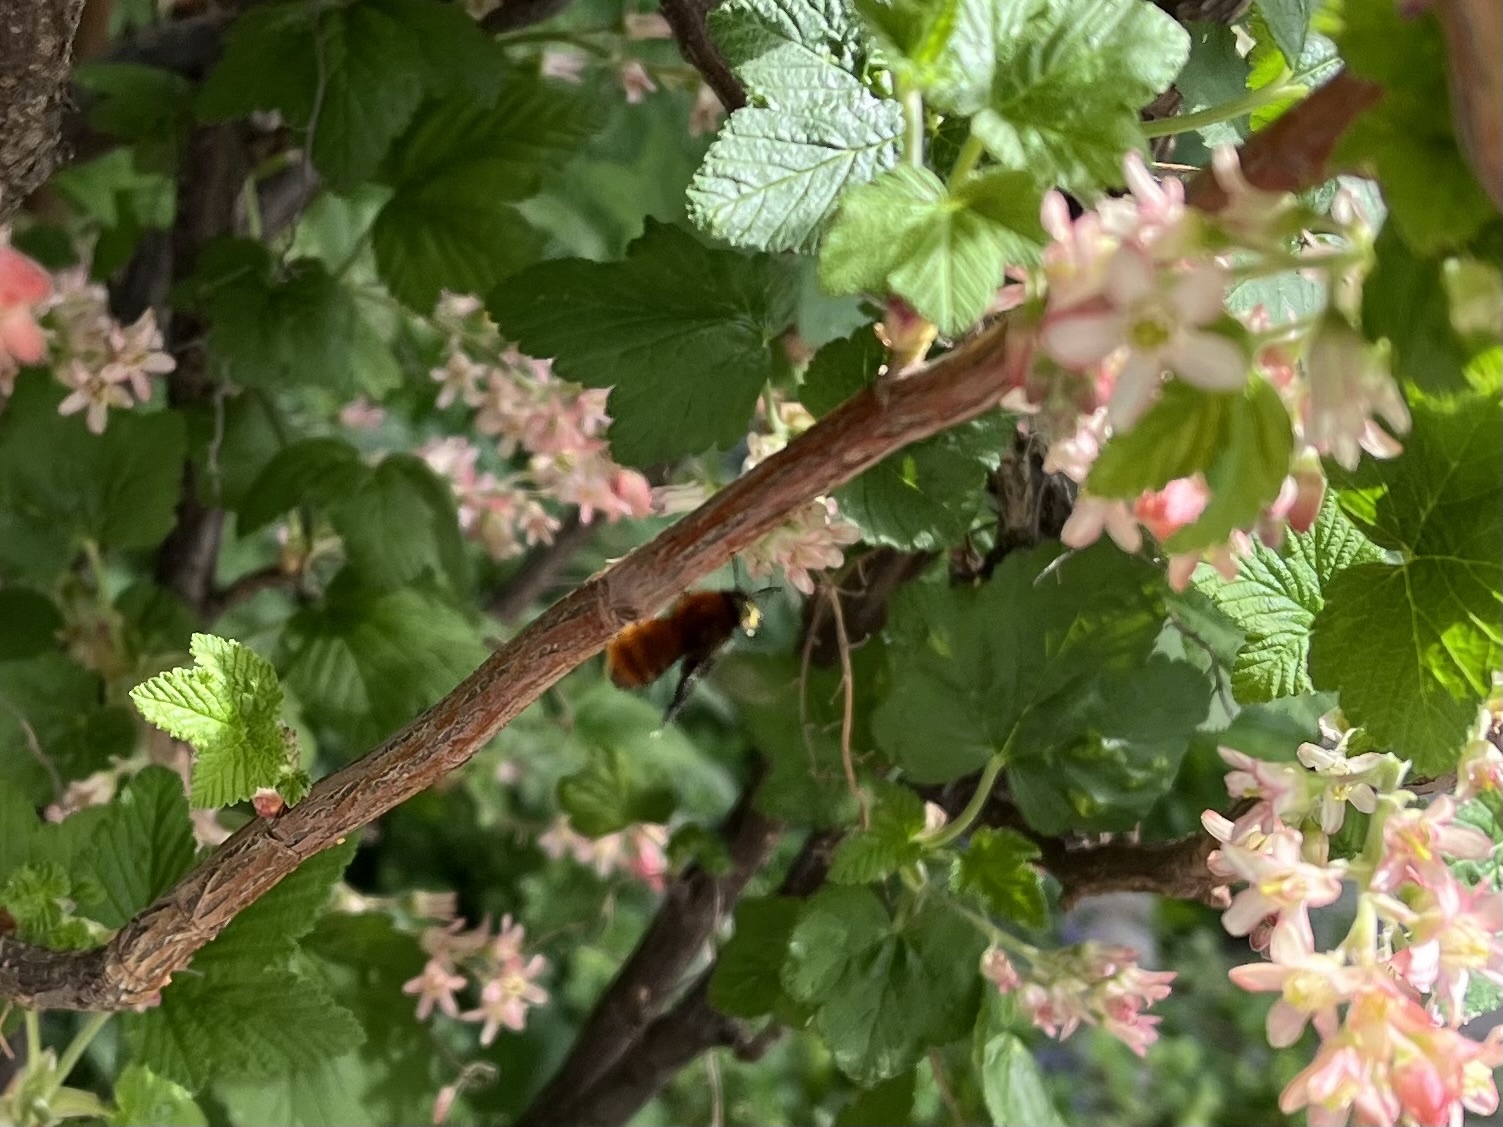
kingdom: Animalia
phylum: Arthropoda
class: Insecta
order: Hymenoptera
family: Andrenidae
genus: Andrena
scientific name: Andrena fulva
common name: Tawny mining bee
